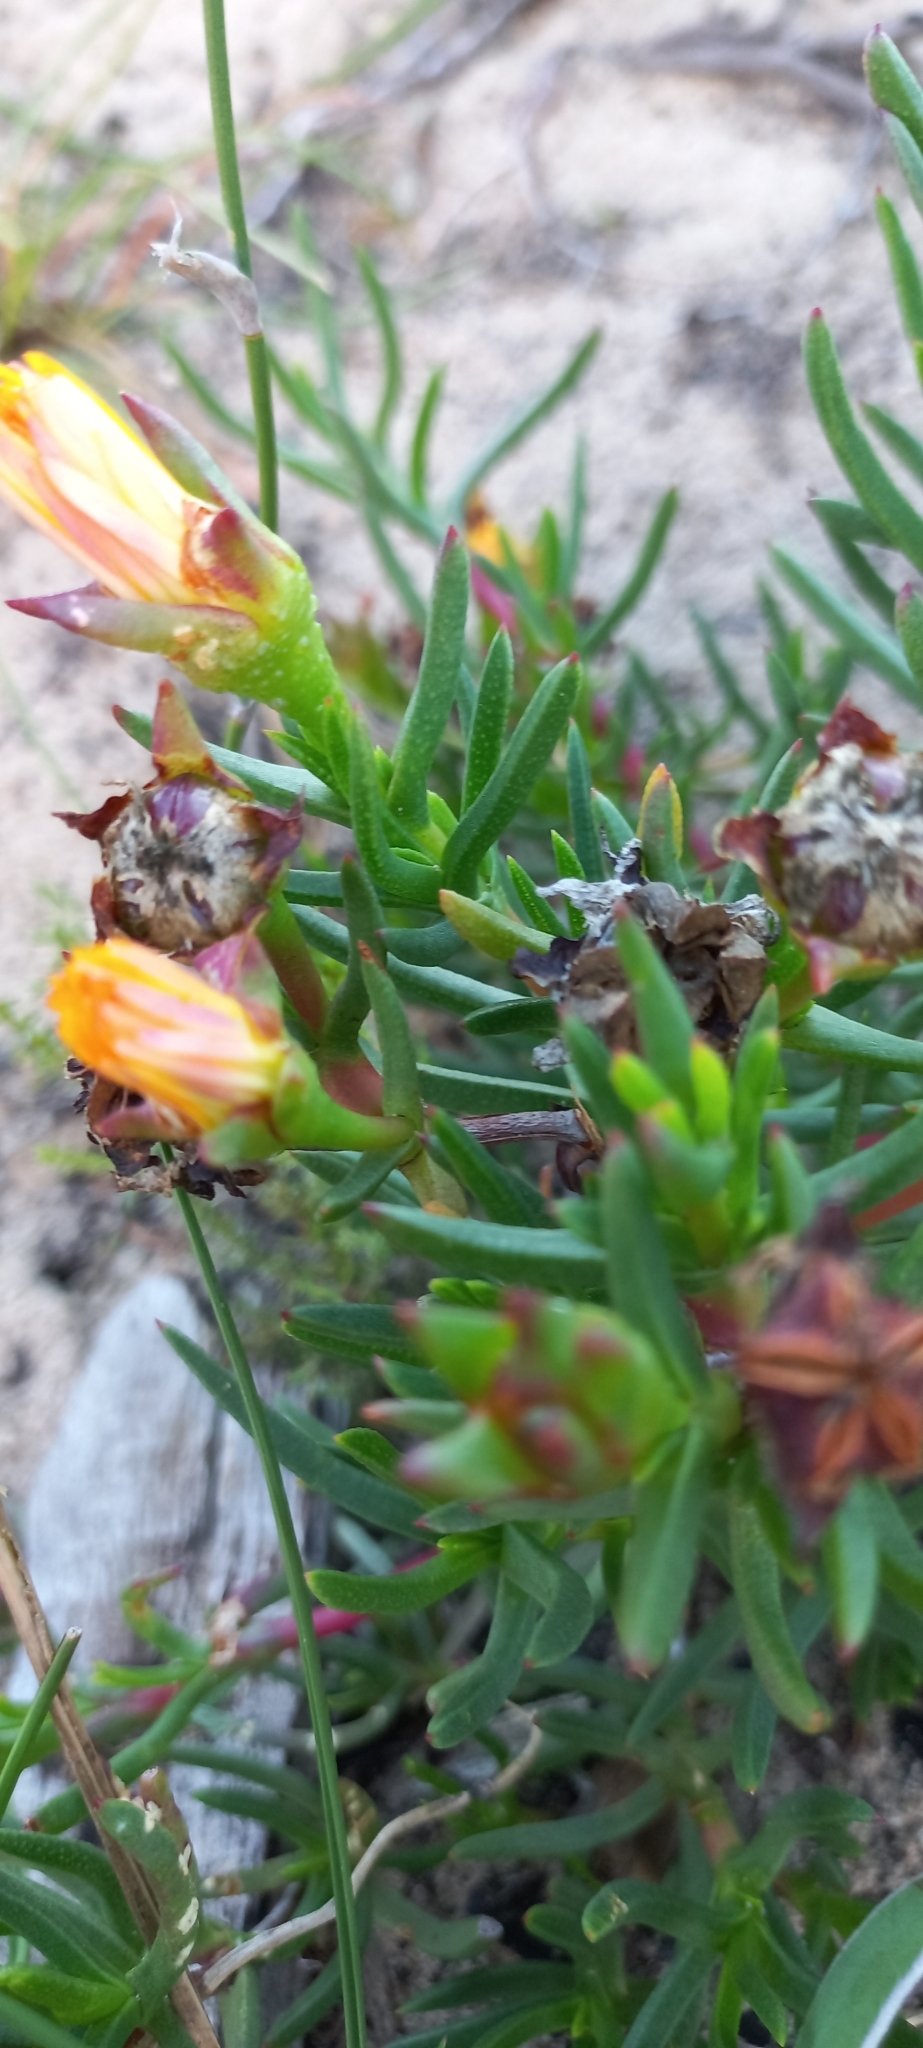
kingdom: Plantae
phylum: Tracheophyta
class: Magnoliopsida
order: Caryophyllales
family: Aizoaceae
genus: Lampranthus
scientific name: Lampranthus bicolor
